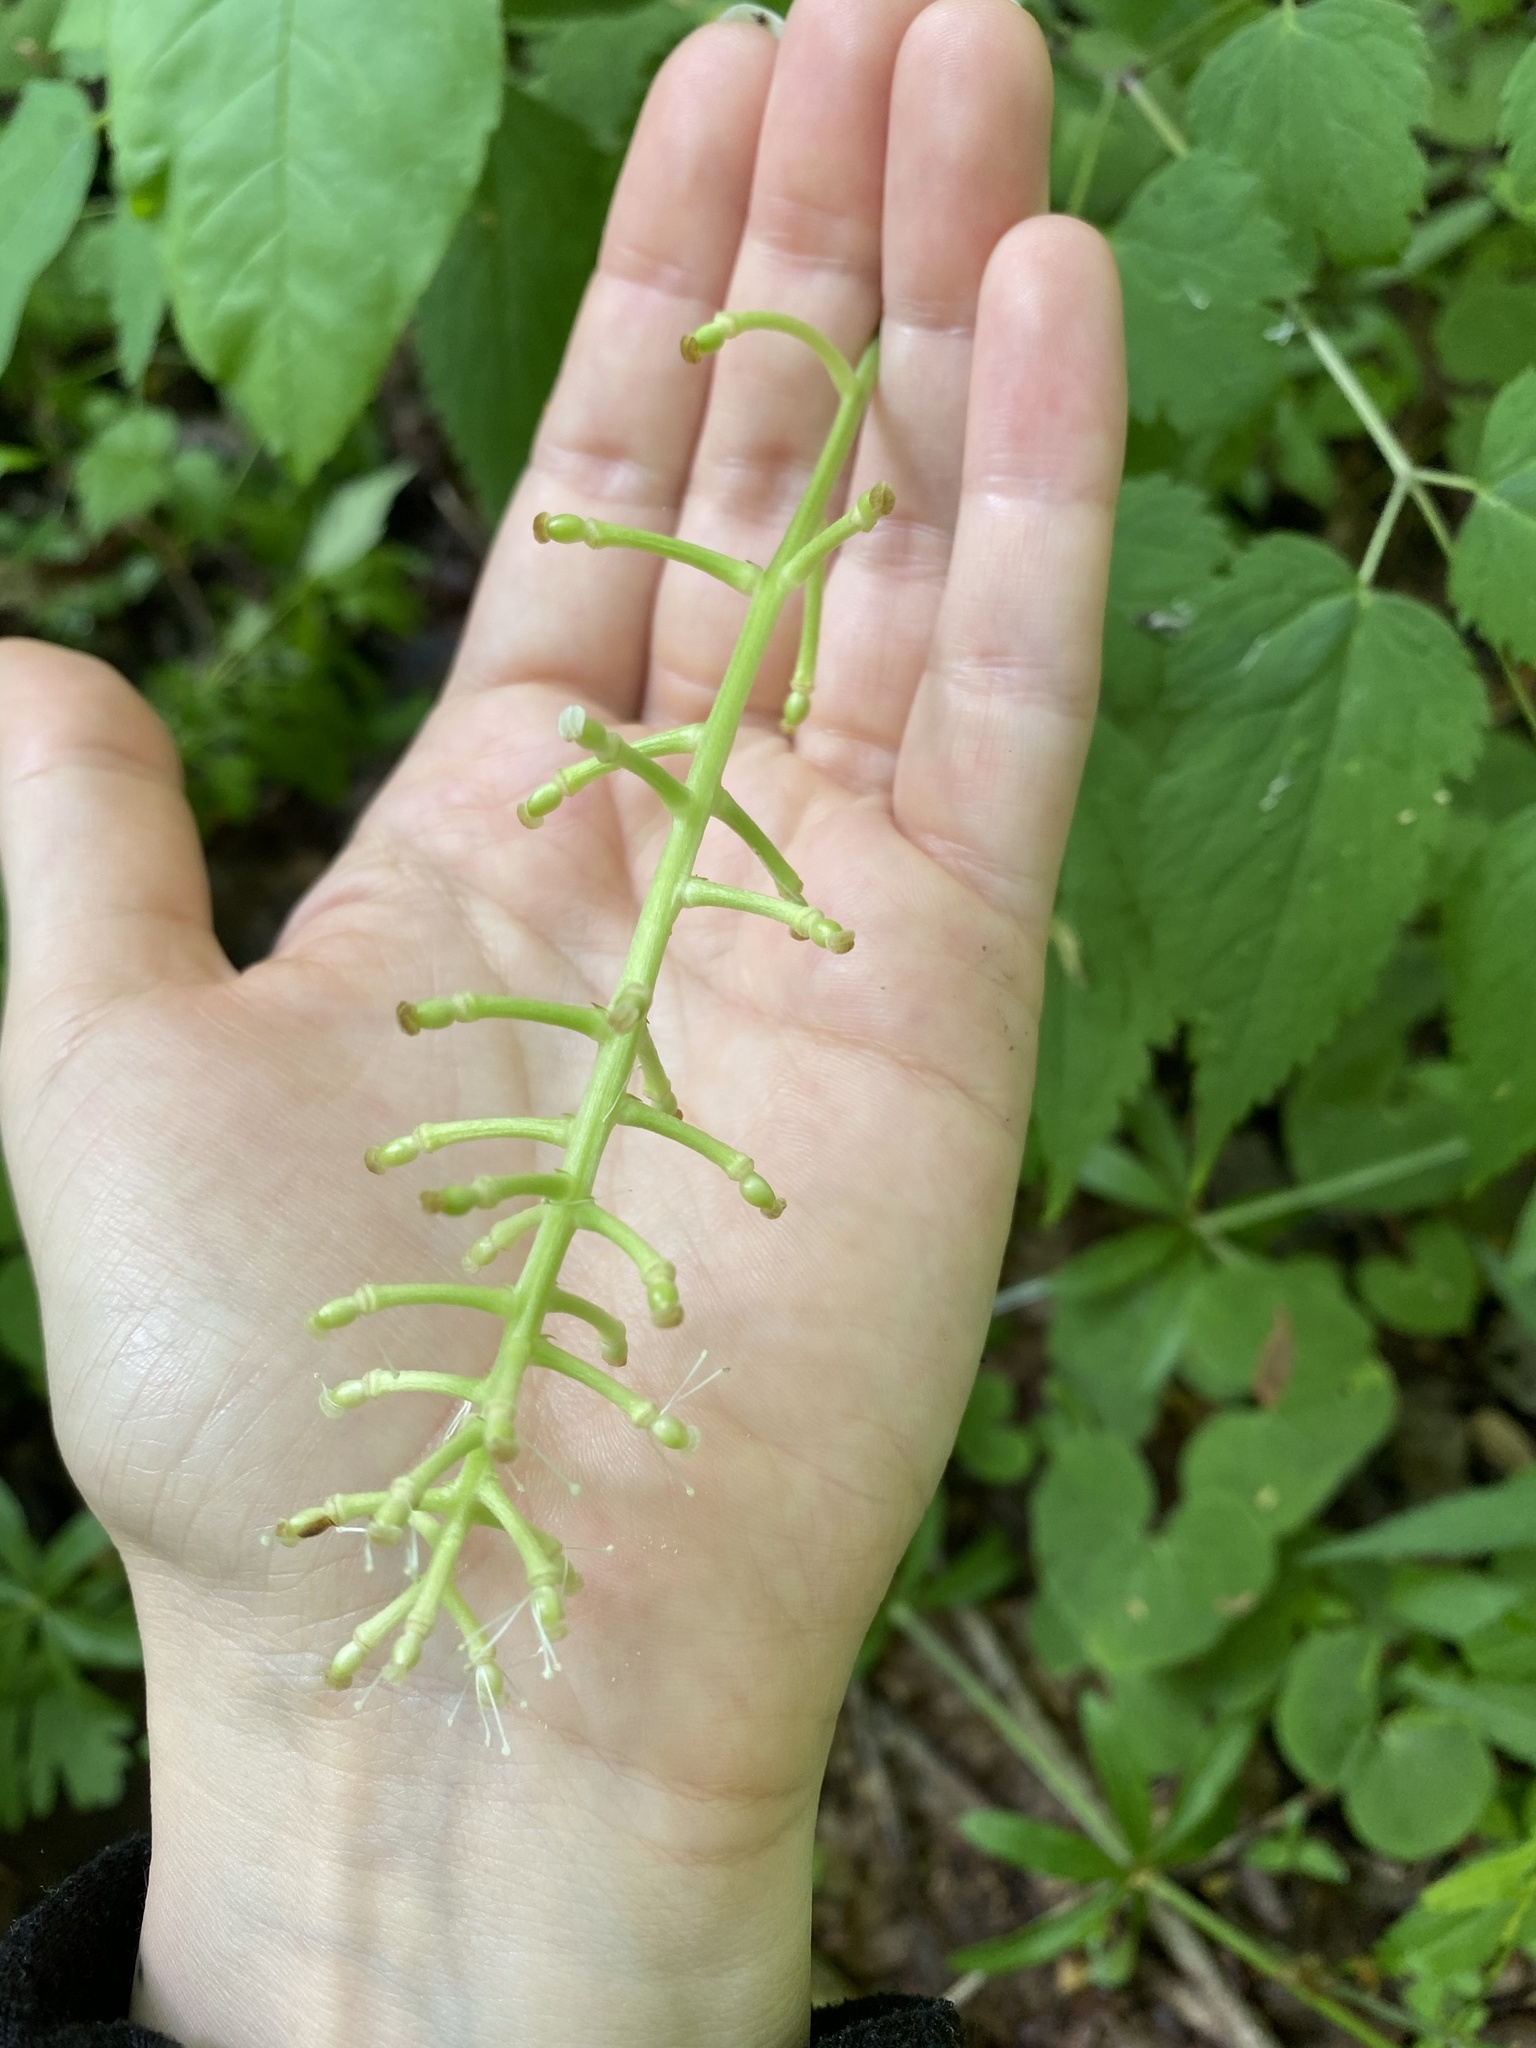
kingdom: Plantae
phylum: Tracheophyta
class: Magnoliopsida
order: Ranunculales
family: Ranunculaceae
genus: Actaea
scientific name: Actaea pachypoda
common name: Doll's-eyes
